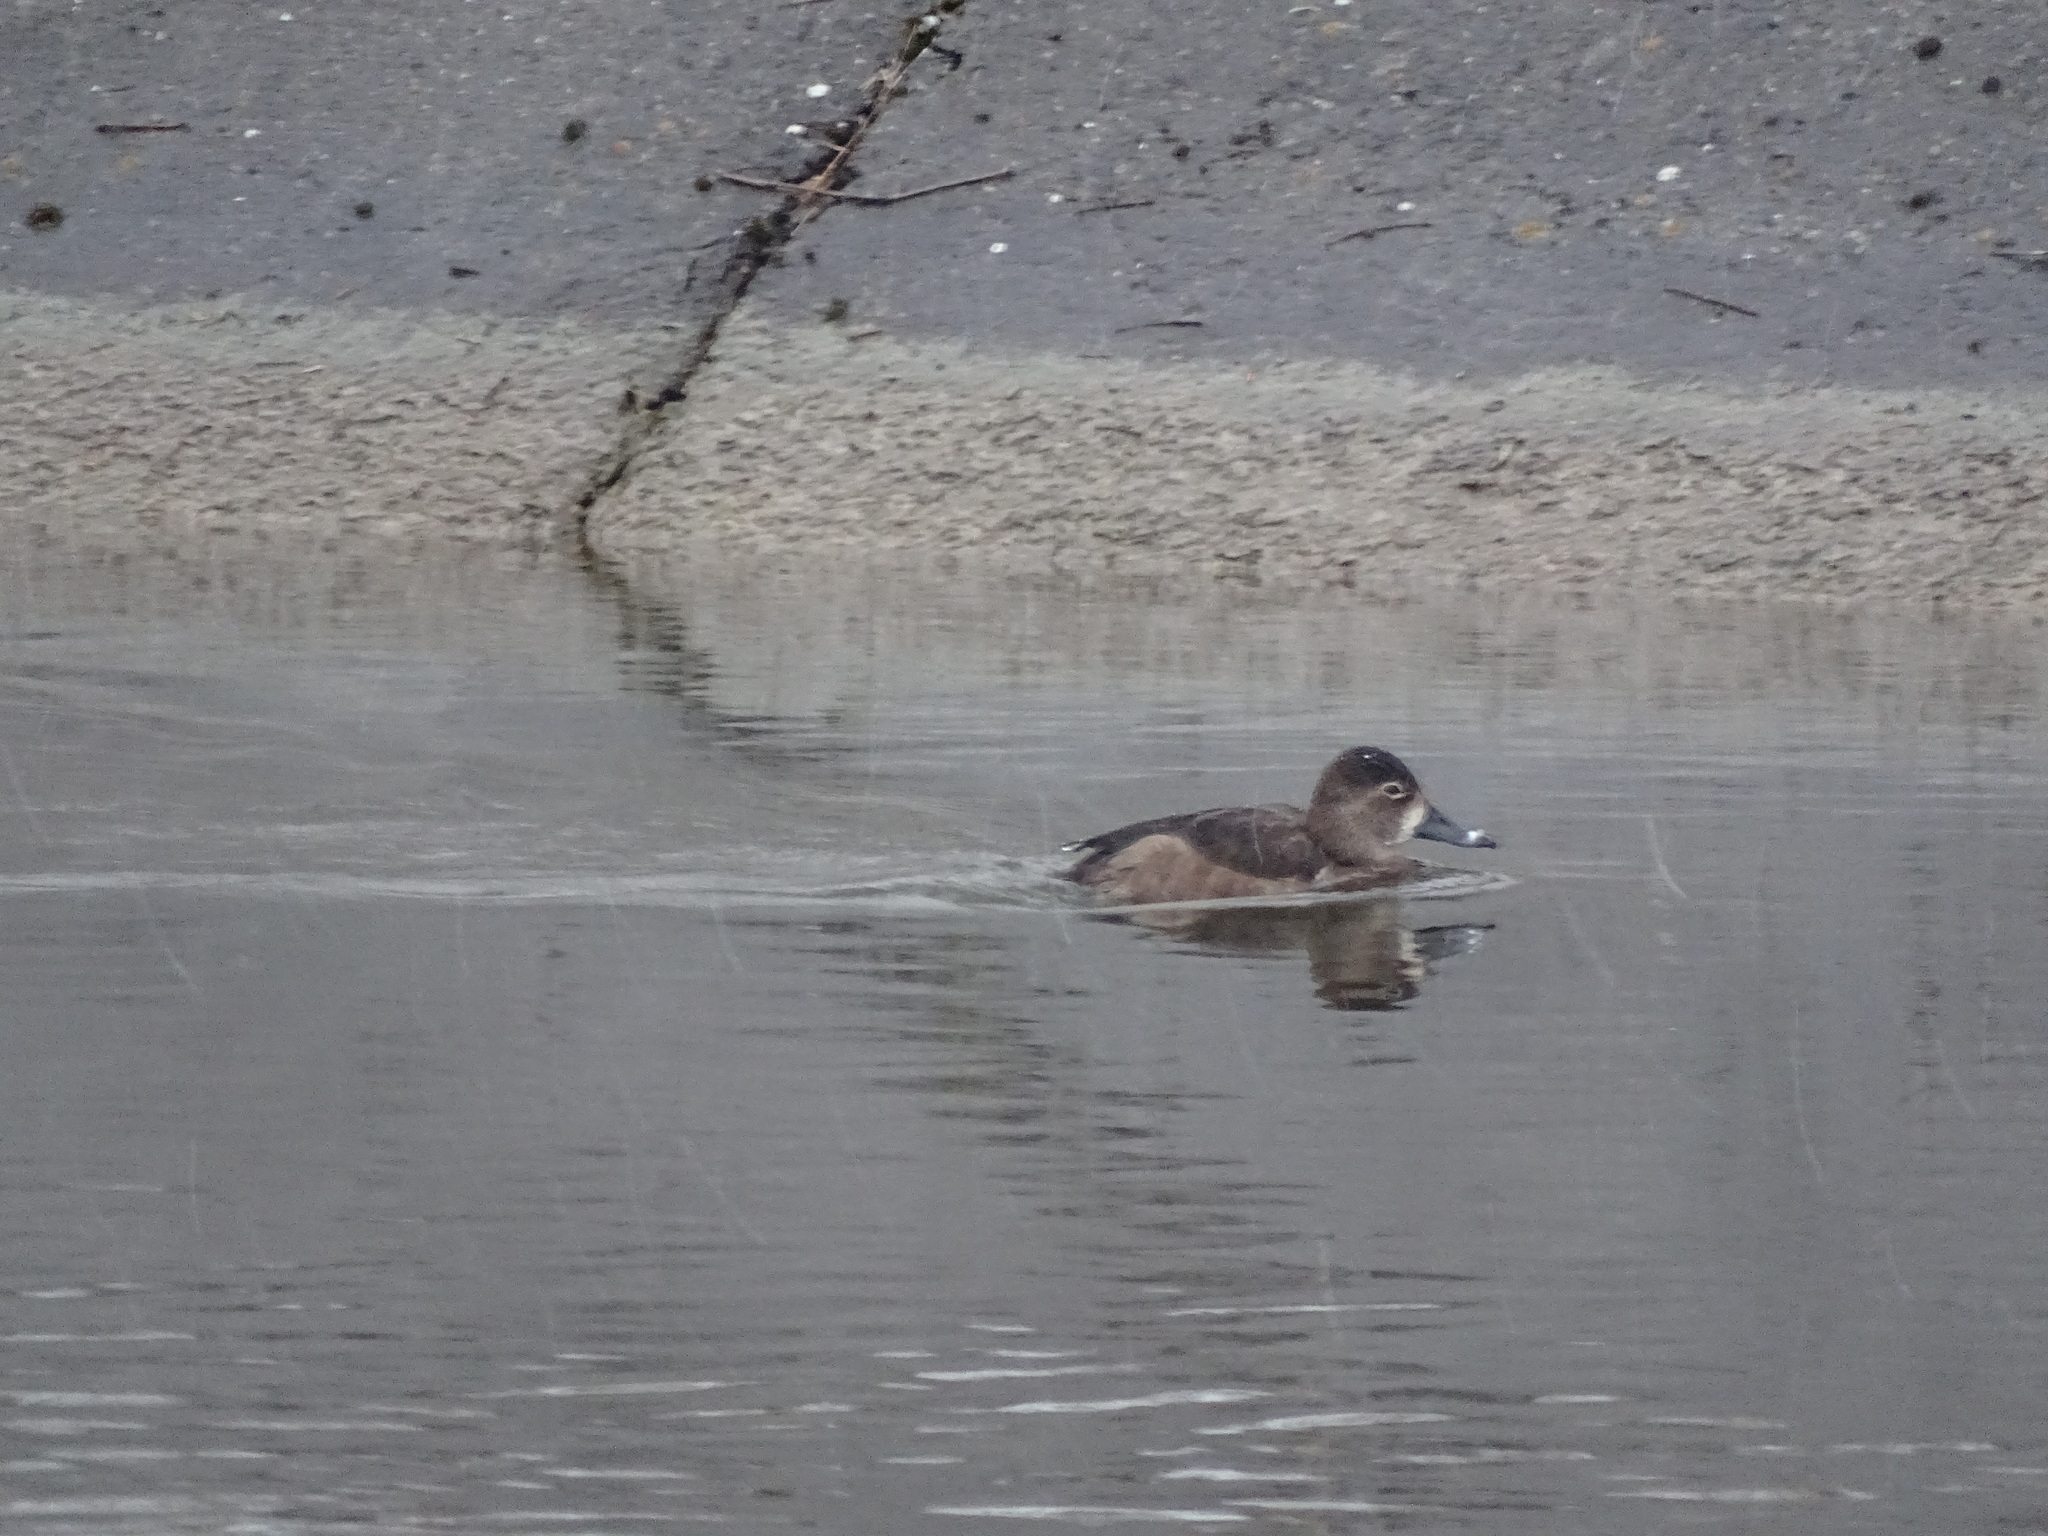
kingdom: Animalia
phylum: Chordata
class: Aves
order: Anseriformes
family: Anatidae
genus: Aythya
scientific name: Aythya collaris
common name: Ring-necked duck
